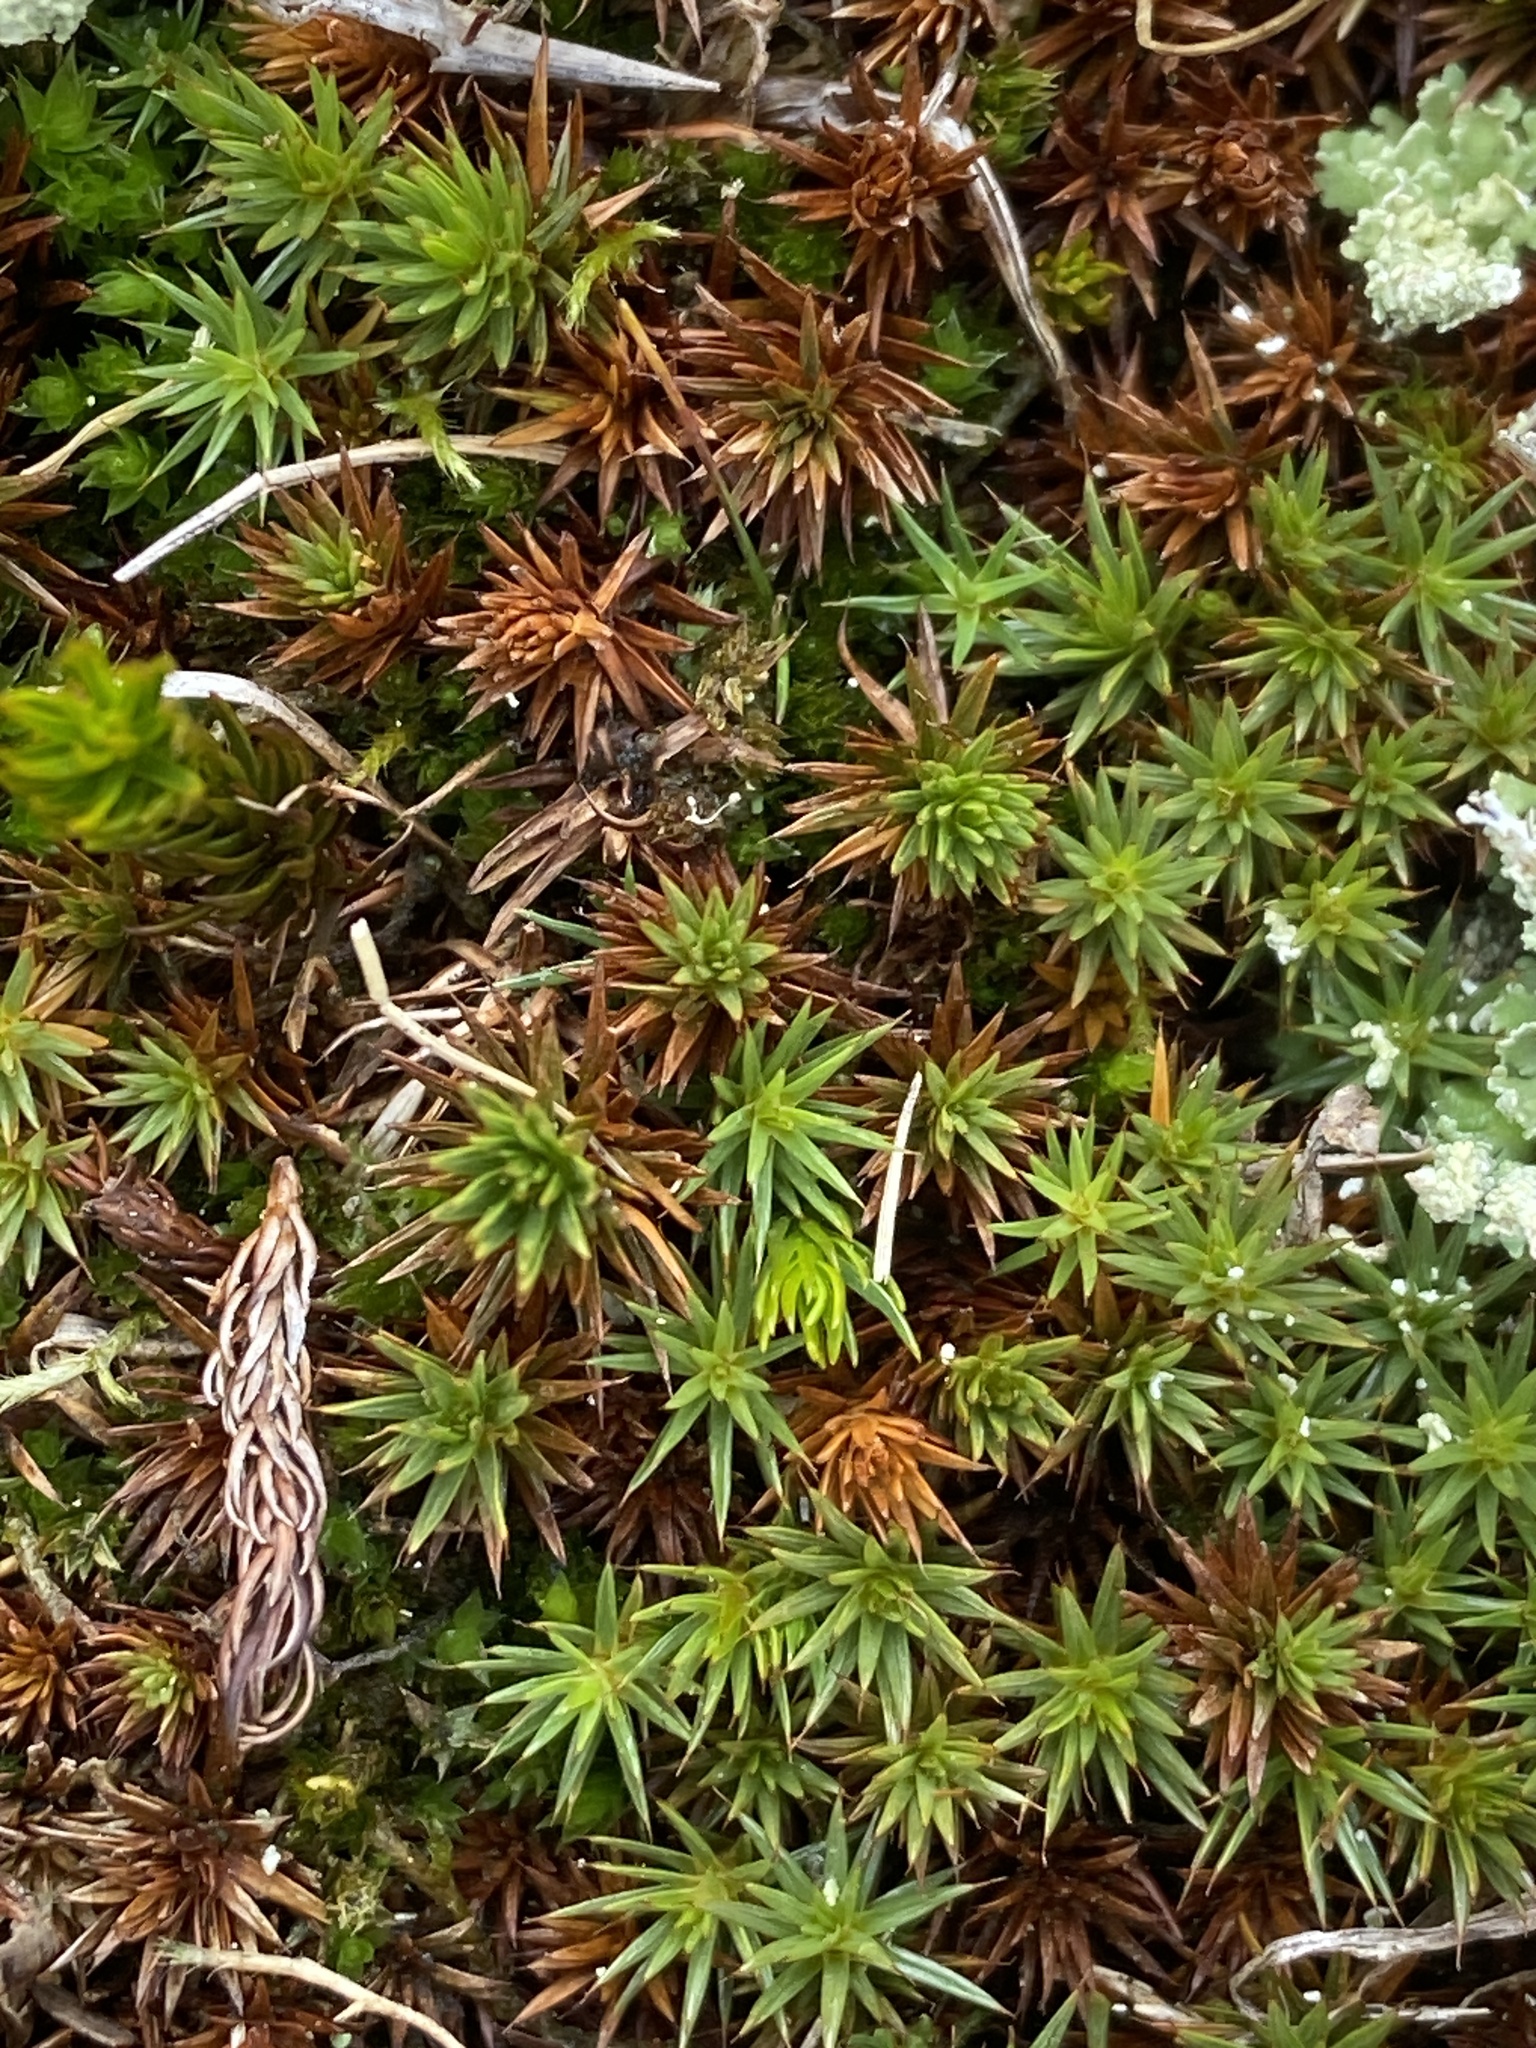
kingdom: Plantae
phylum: Bryophyta
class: Polytrichopsida
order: Polytrichales
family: Polytrichaceae
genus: Polytrichum
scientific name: Polytrichum piliferum
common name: Bristly haircap
